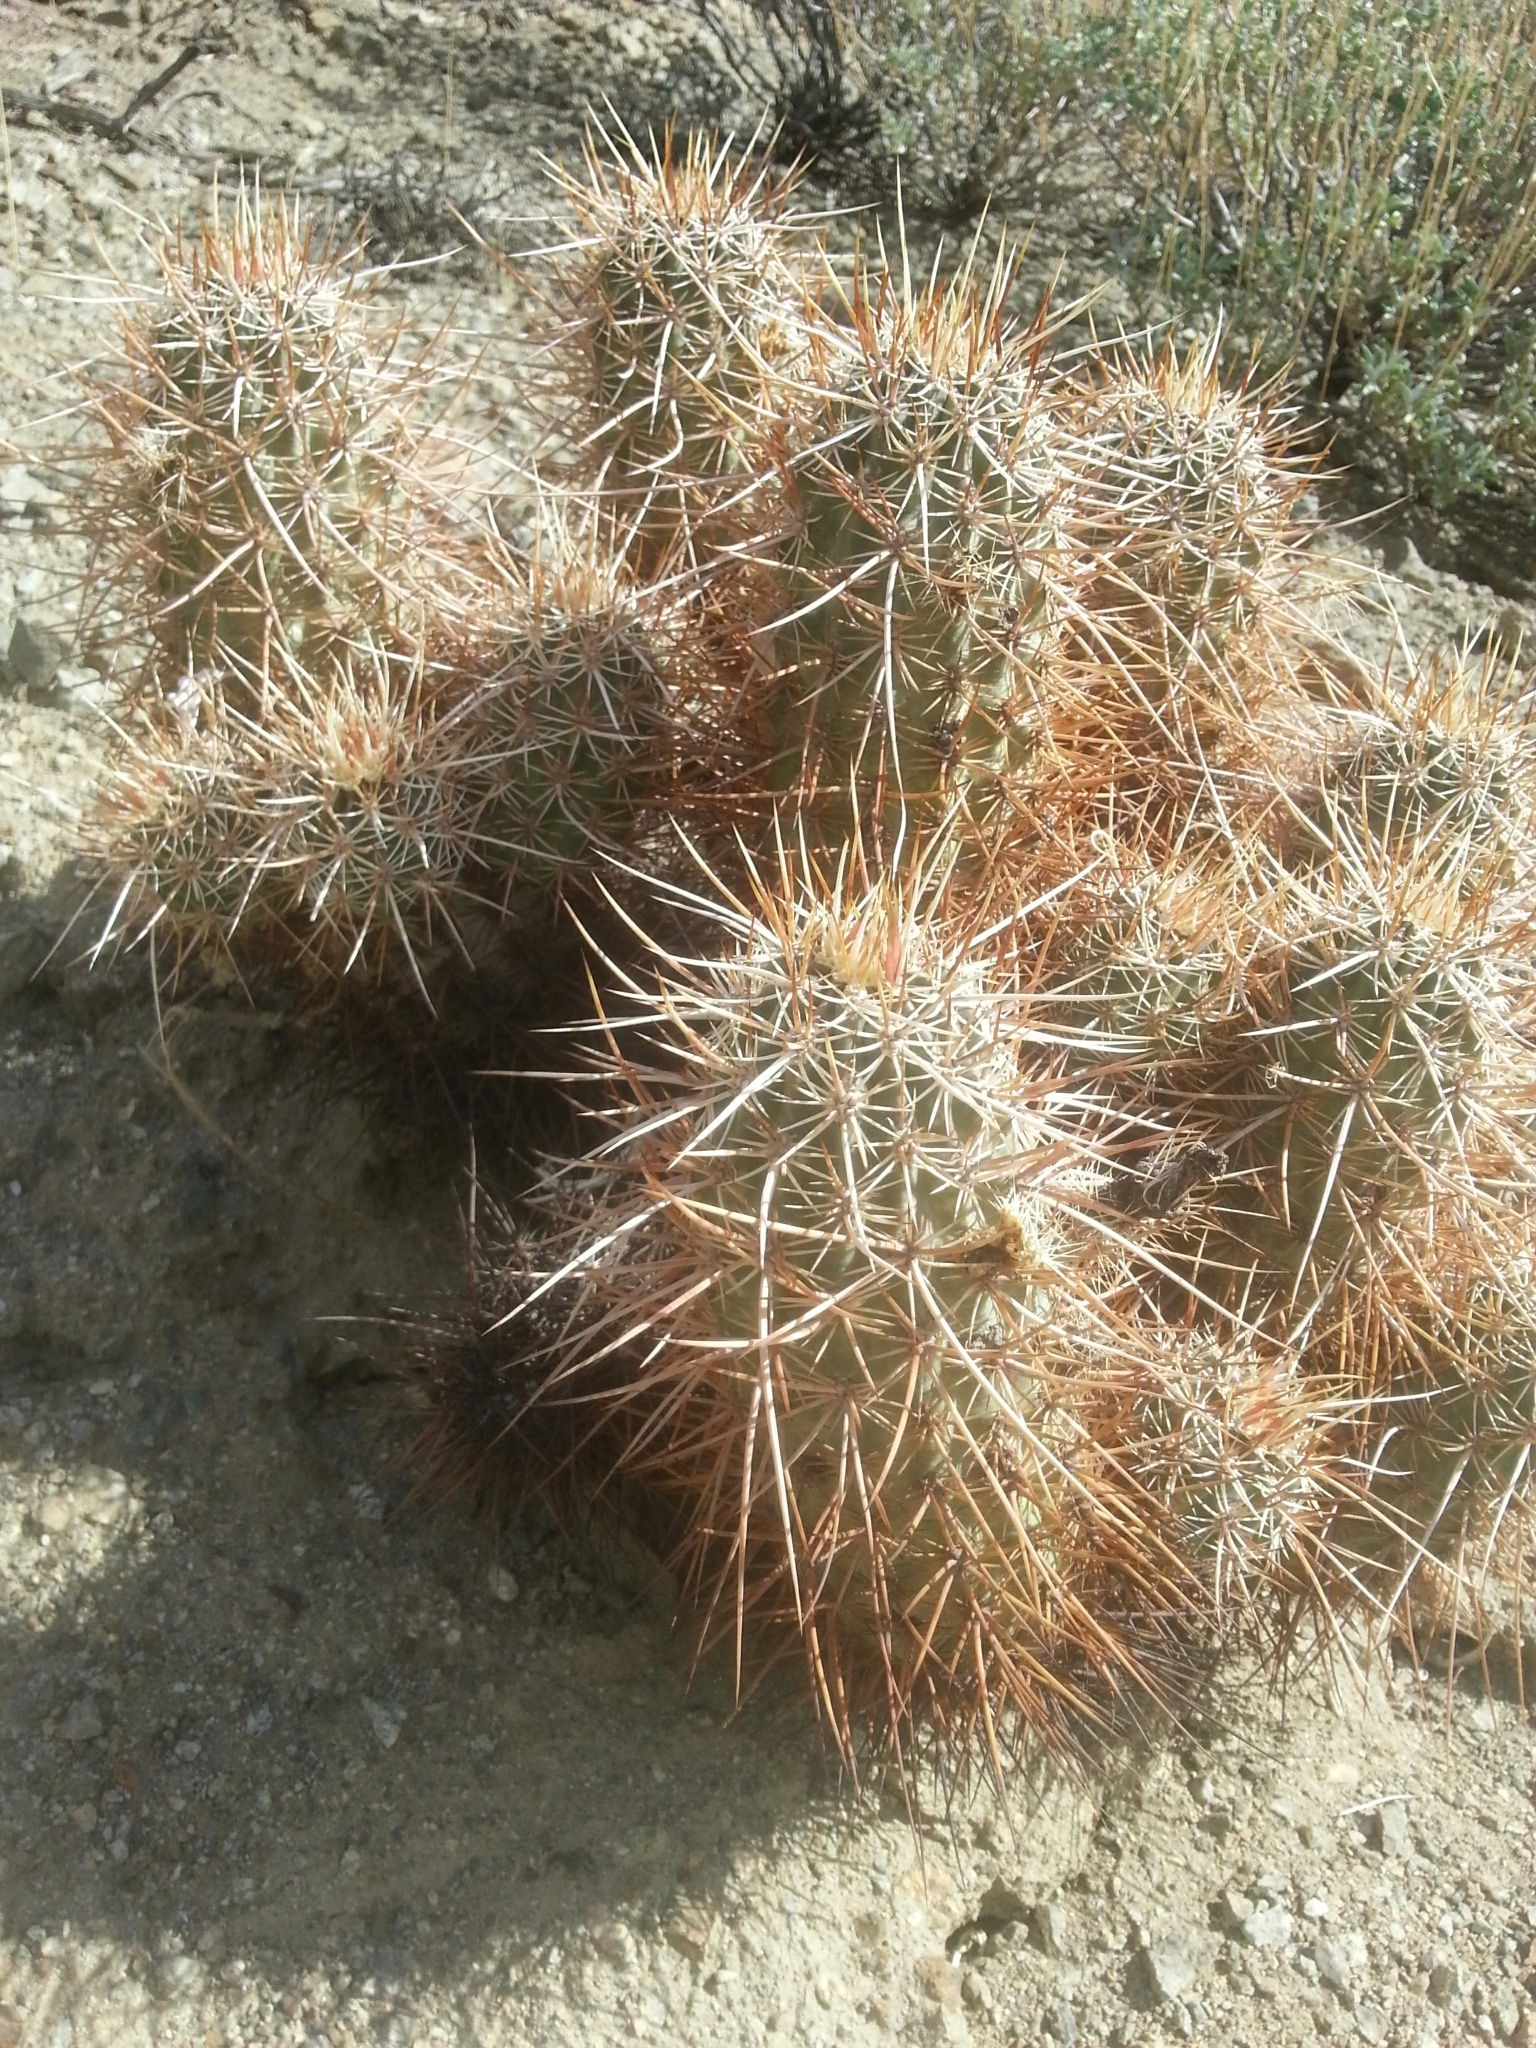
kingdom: Plantae
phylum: Tracheophyta
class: Magnoliopsida
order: Caryophyllales
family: Cactaceae
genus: Echinocereus
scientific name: Echinocereus engelmannii
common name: Engelmann's hedgehog cactus
